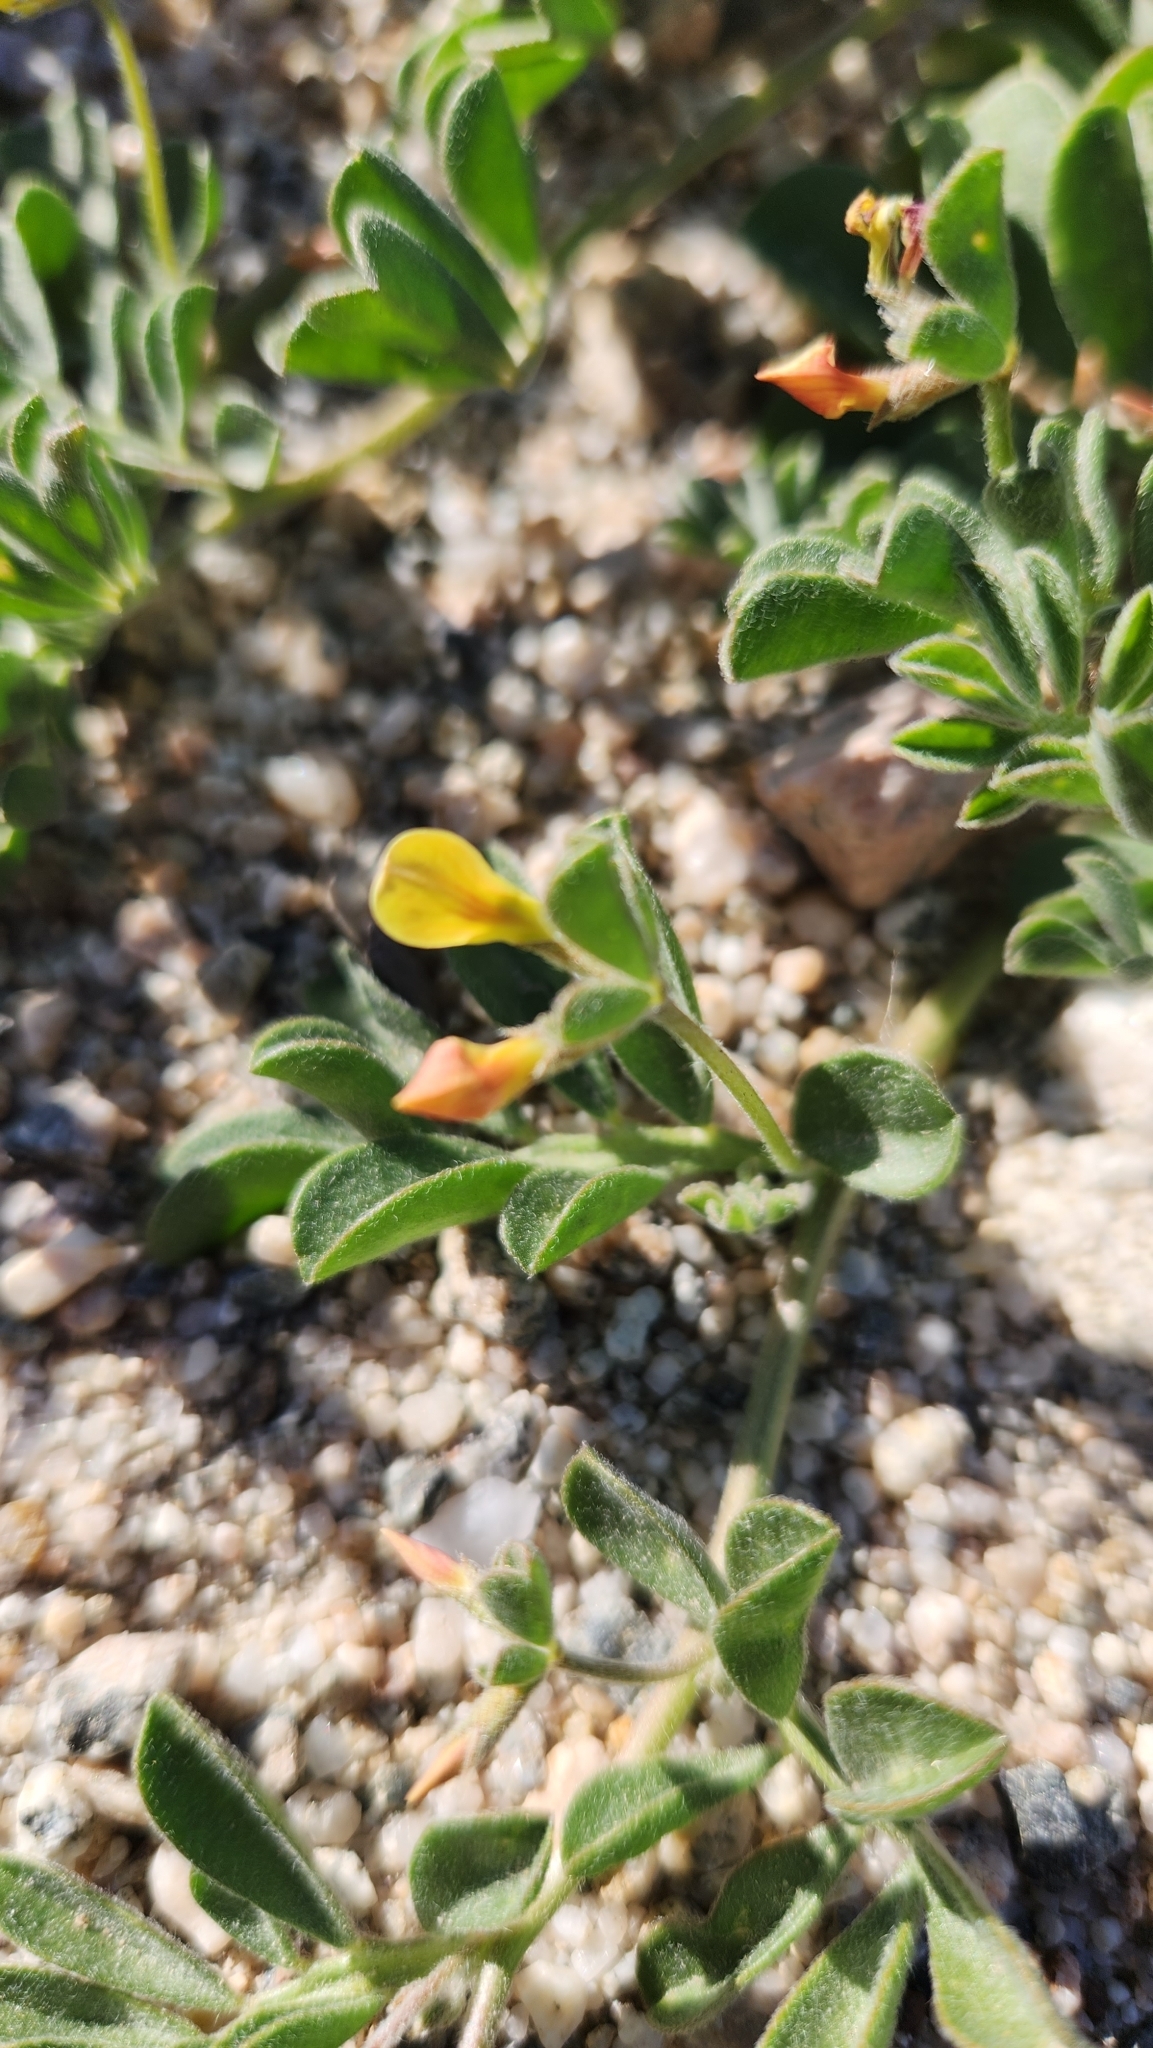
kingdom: Plantae
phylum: Tracheophyta
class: Magnoliopsida
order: Fabales
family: Fabaceae
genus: Acmispon
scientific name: Acmispon strigosus
